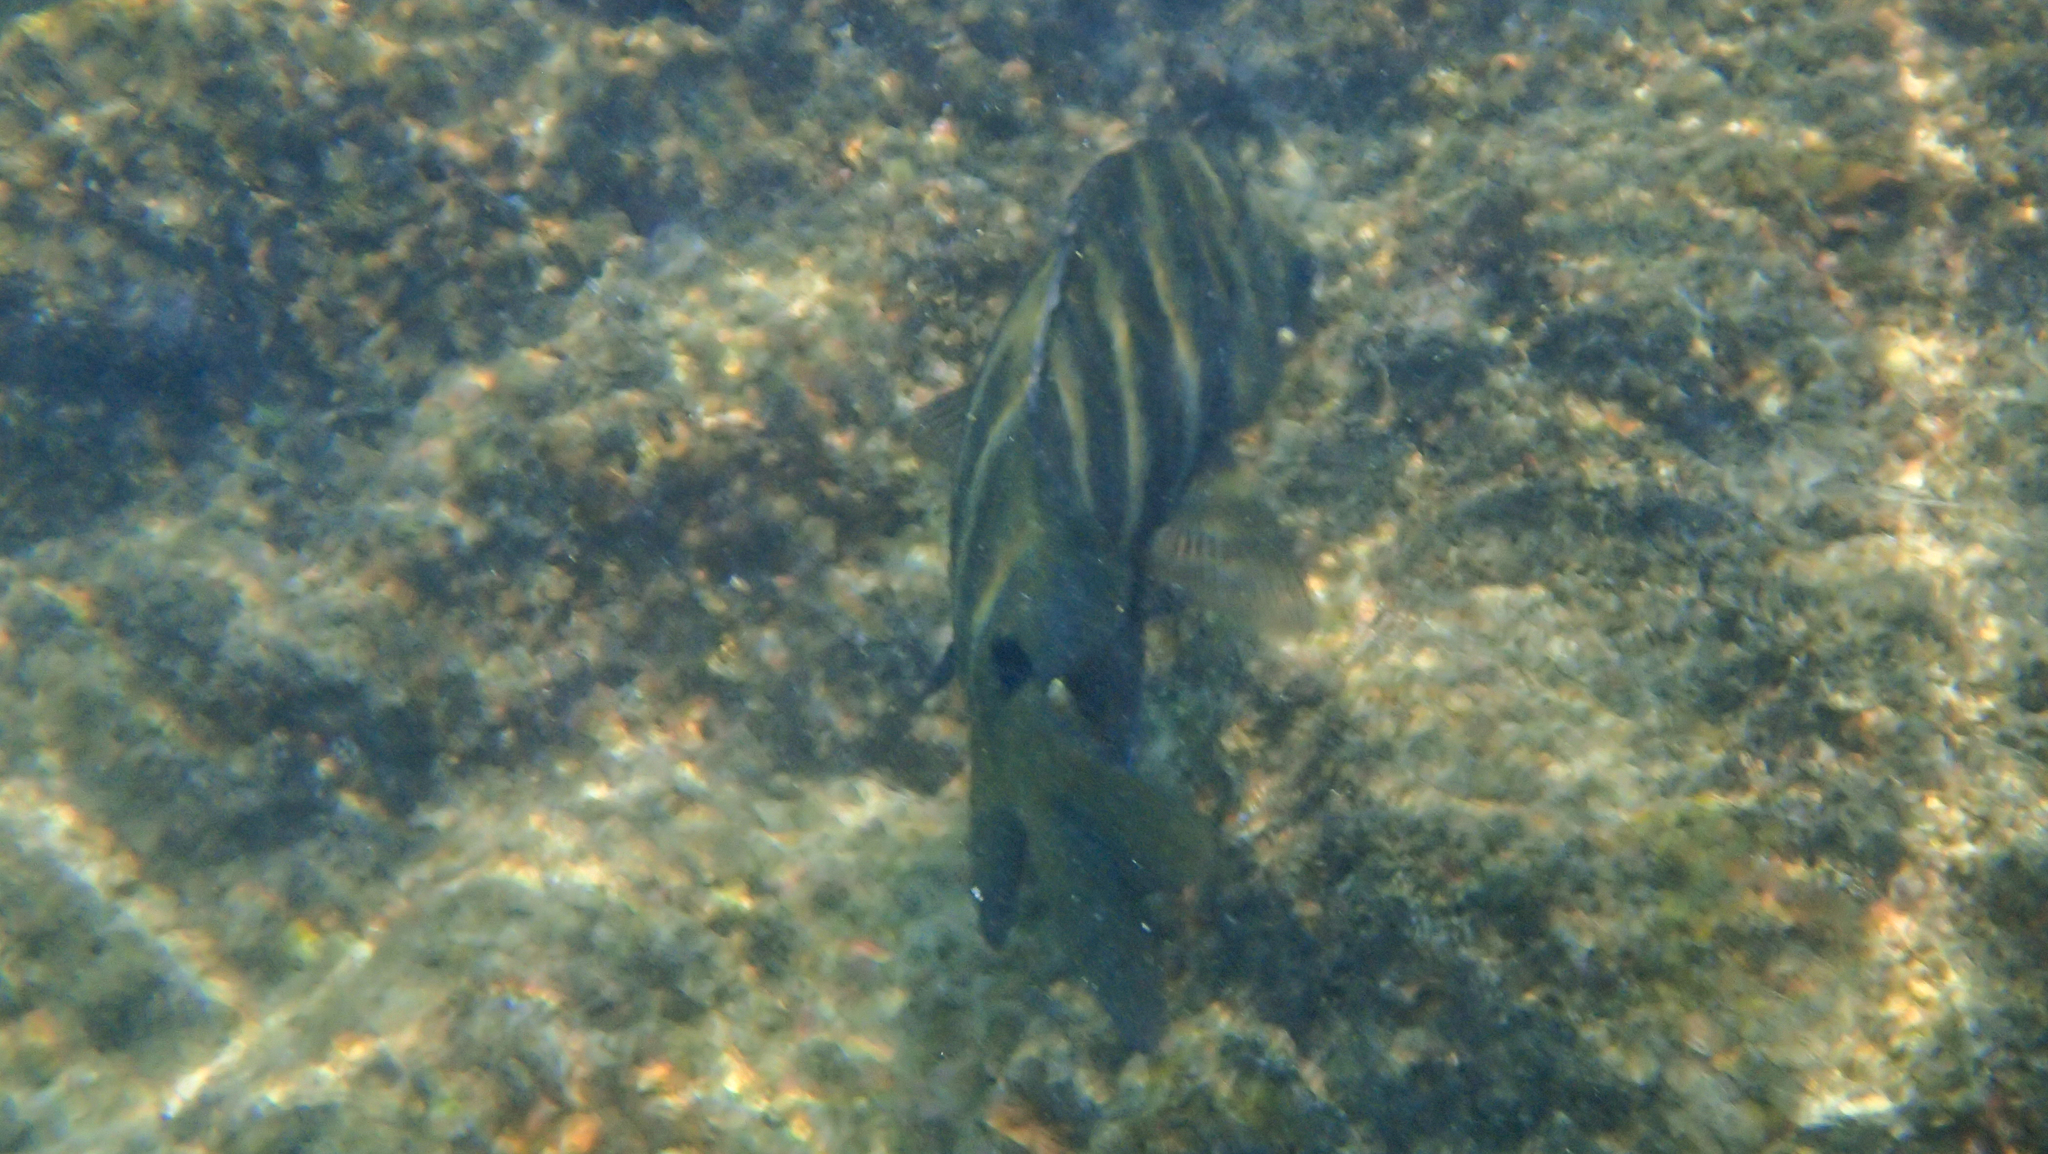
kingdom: Animalia
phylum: Chordata
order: Perciformes
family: Pomacentridae
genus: Abudefduf
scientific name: Abudefduf sordidus
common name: Blackspot sergeant
